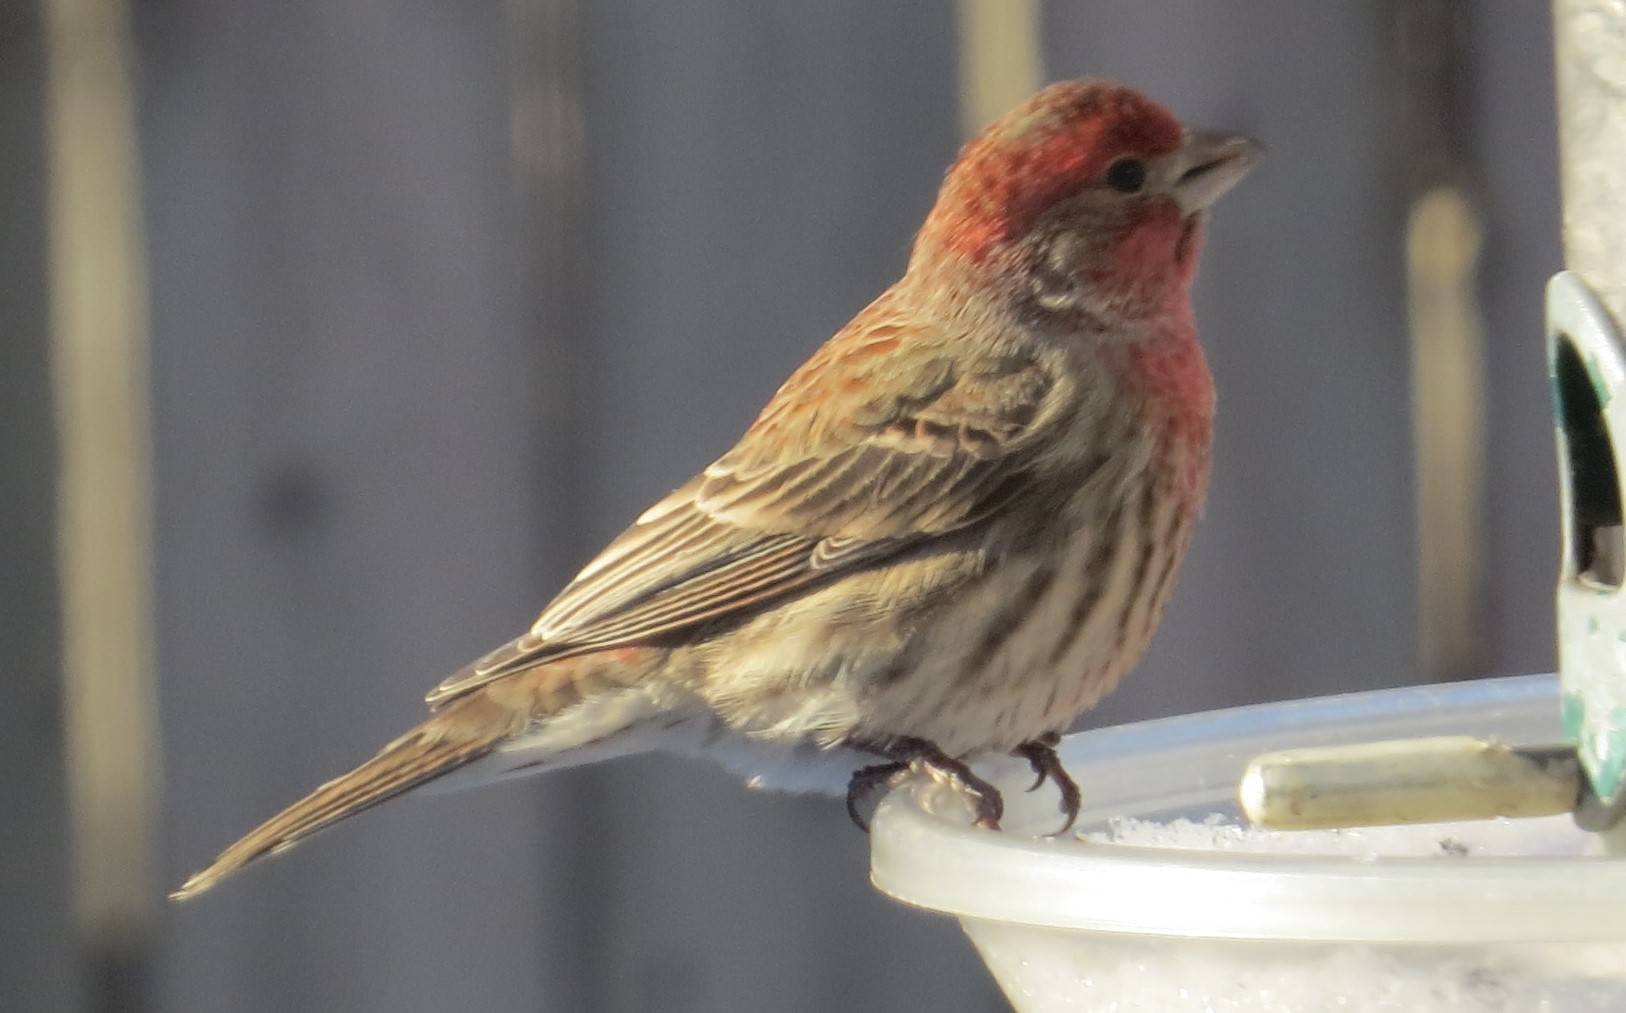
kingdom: Animalia
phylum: Chordata
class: Aves
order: Passeriformes
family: Fringillidae
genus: Haemorhous
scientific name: Haemorhous mexicanus
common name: House finch
